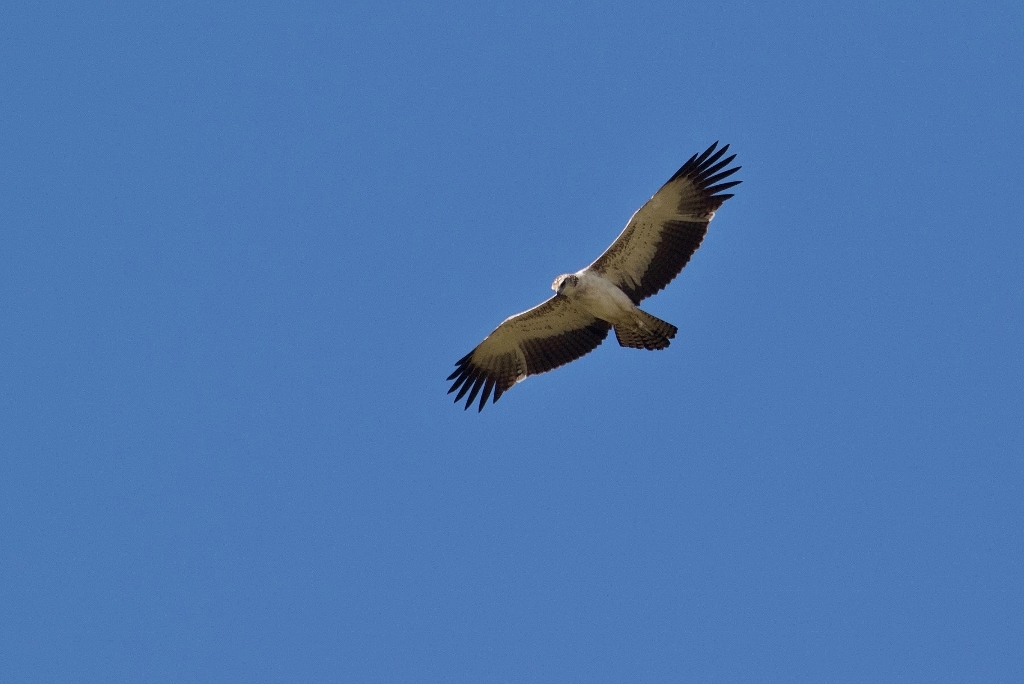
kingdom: Animalia
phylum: Chordata
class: Aves
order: Accipitriformes
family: Accipitridae
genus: Polemaetus
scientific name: Polemaetus bellicosus
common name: Martial eagle
